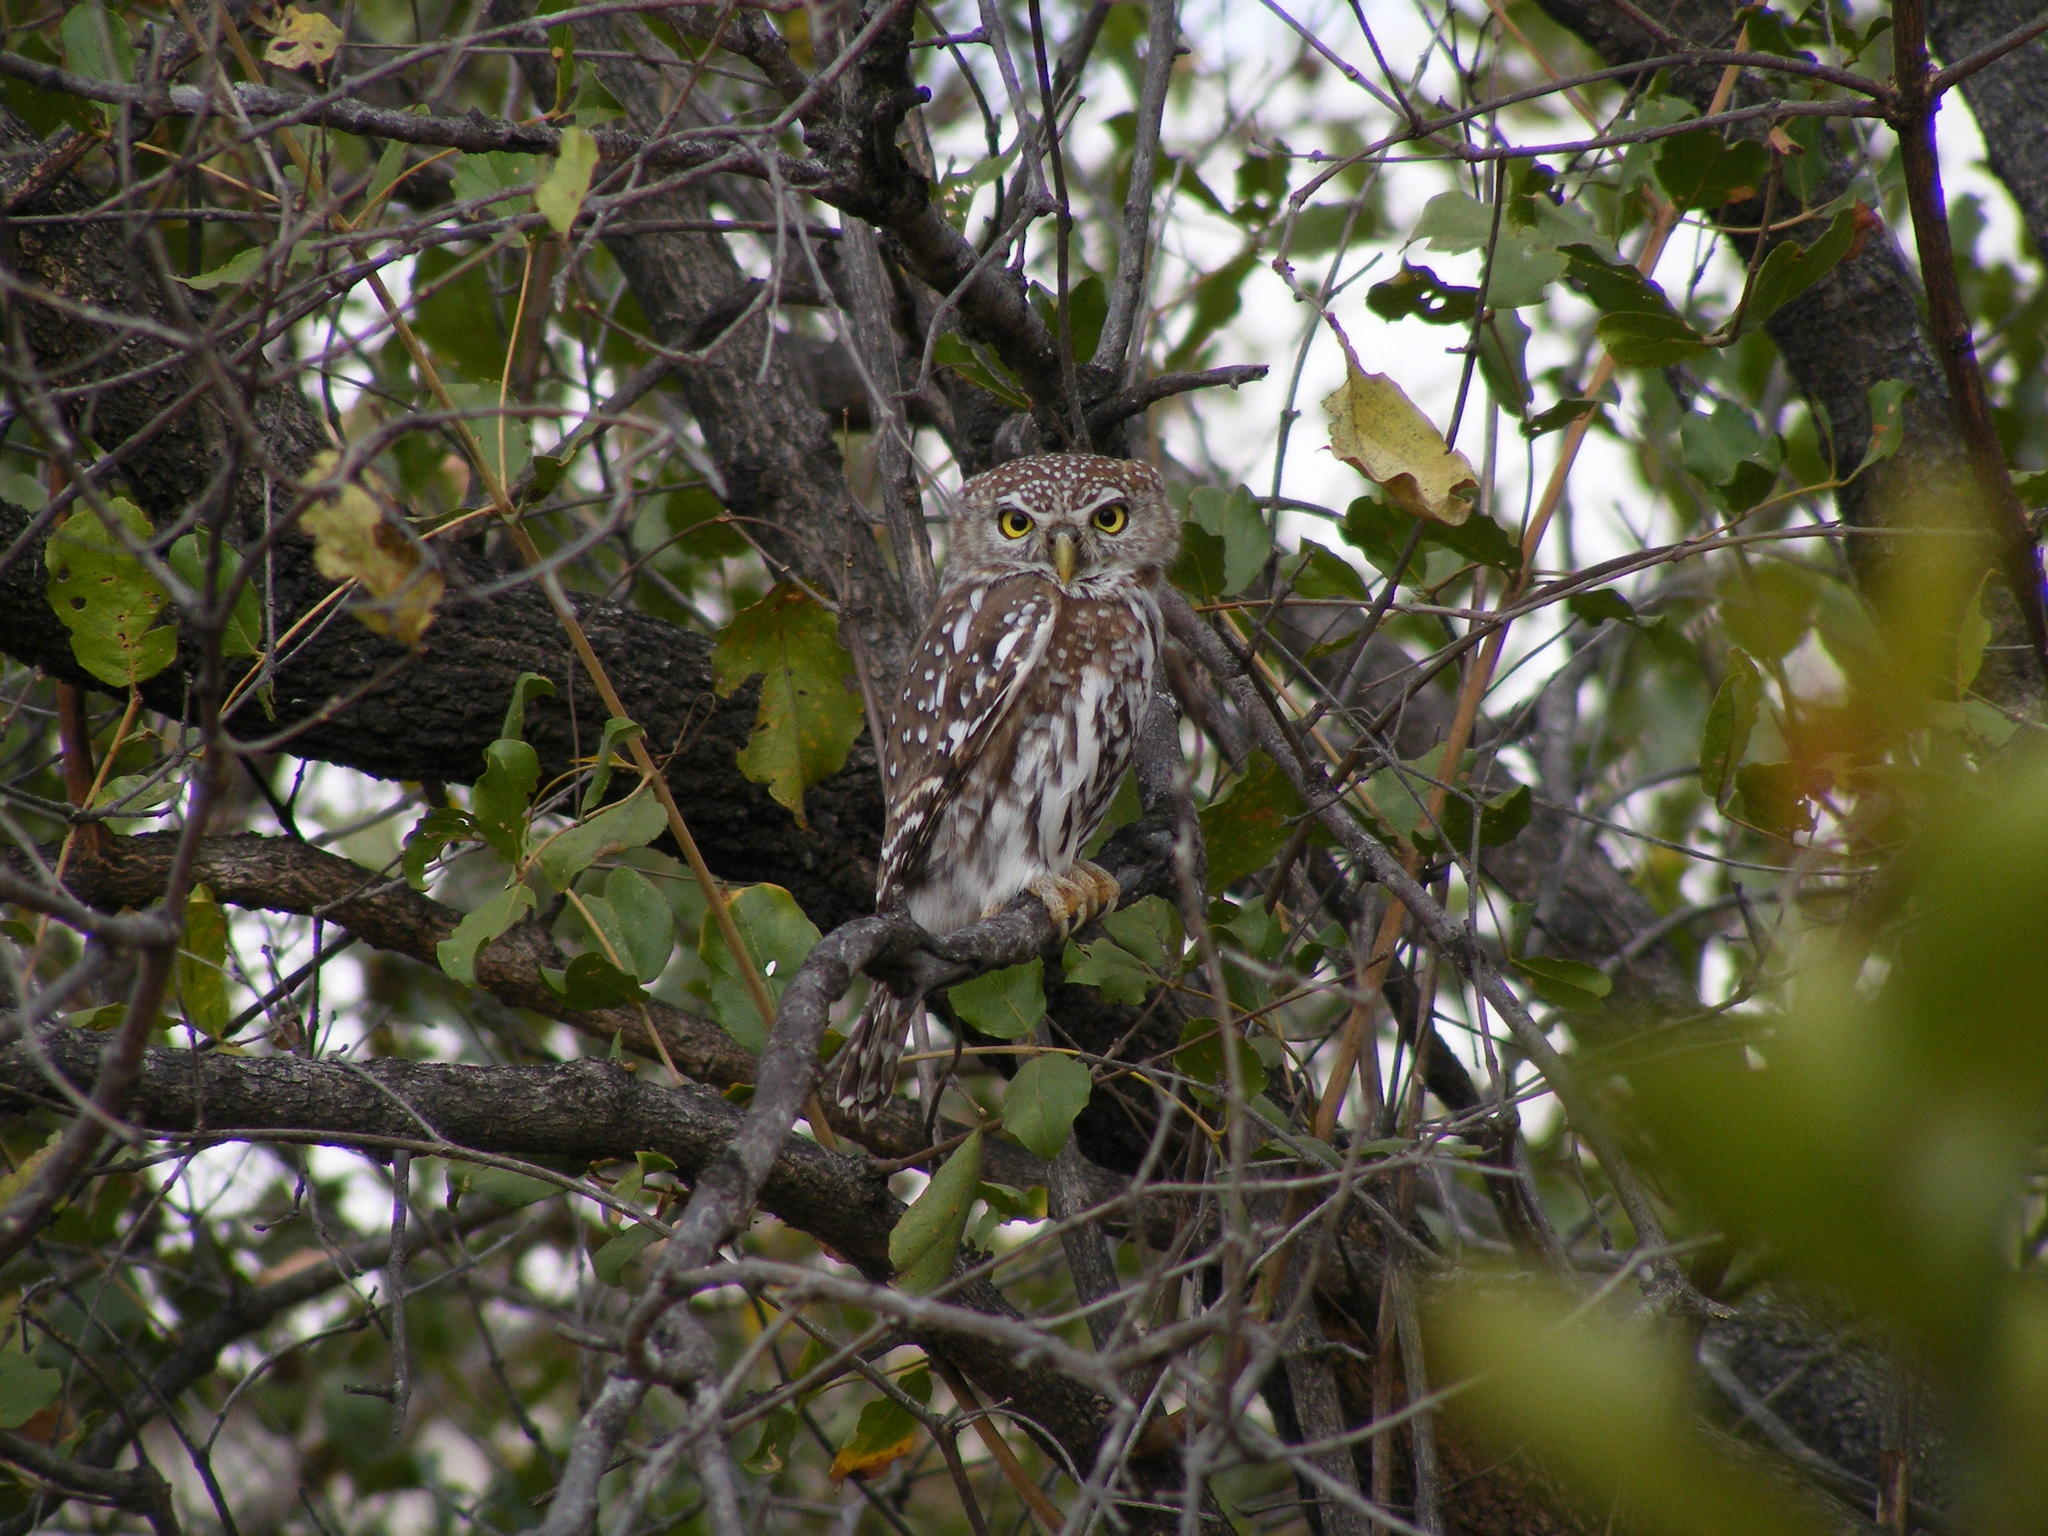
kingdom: Animalia
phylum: Chordata
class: Aves
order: Strigiformes
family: Strigidae
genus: Glaucidium
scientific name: Glaucidium perlatum
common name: Pearl-spotted owlet
